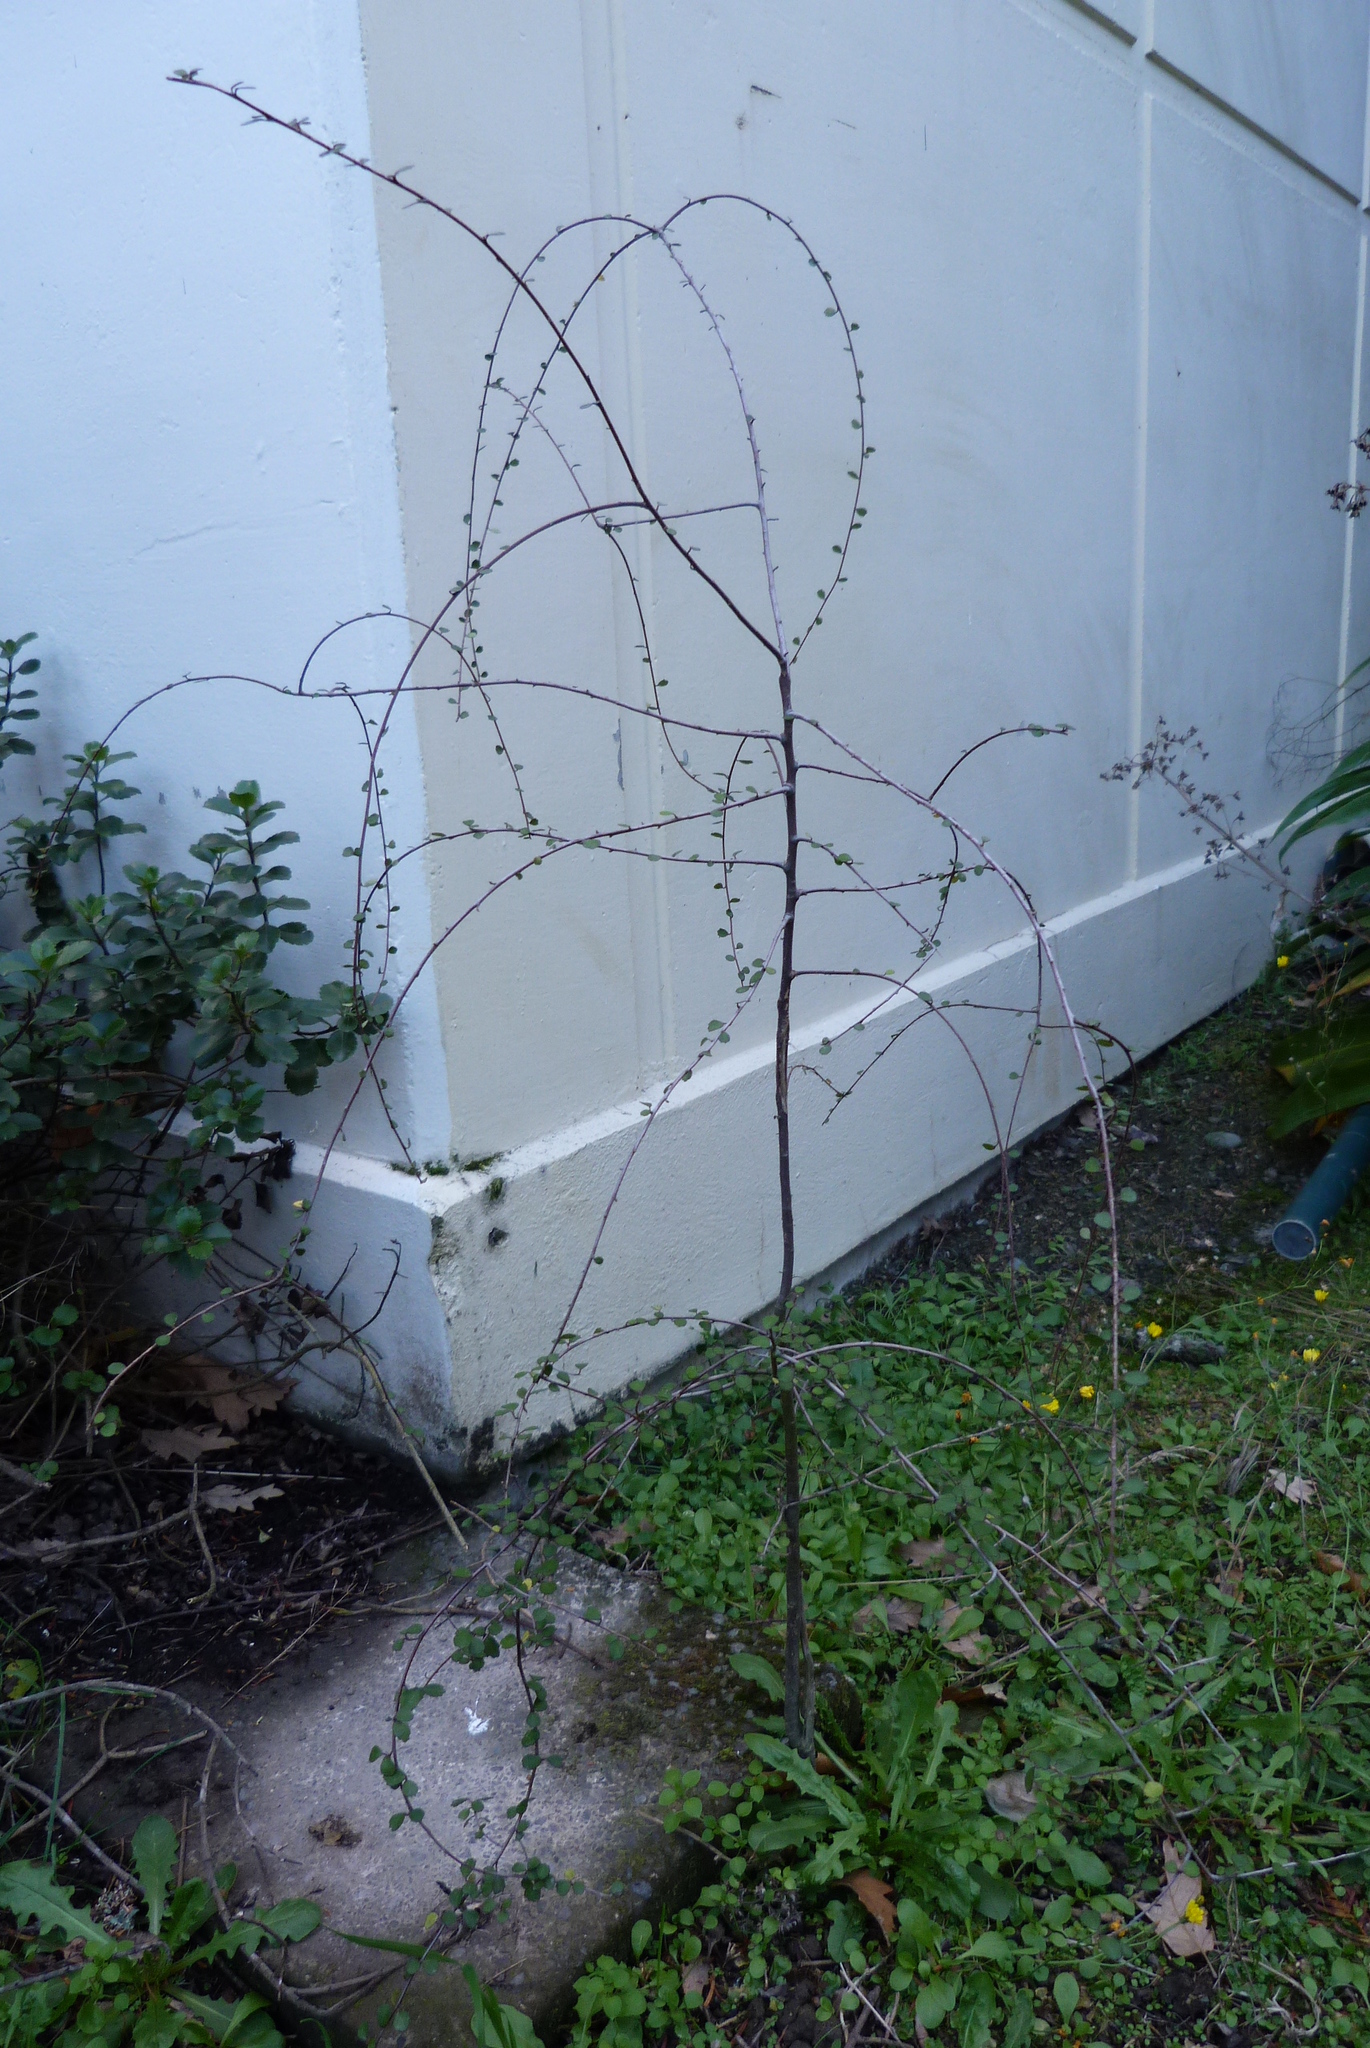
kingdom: Plantae
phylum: Tracheophyta
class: Magnoliopsida
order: Malvales
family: Malvaceae
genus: Hoheria
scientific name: Hoheria angustifolia
